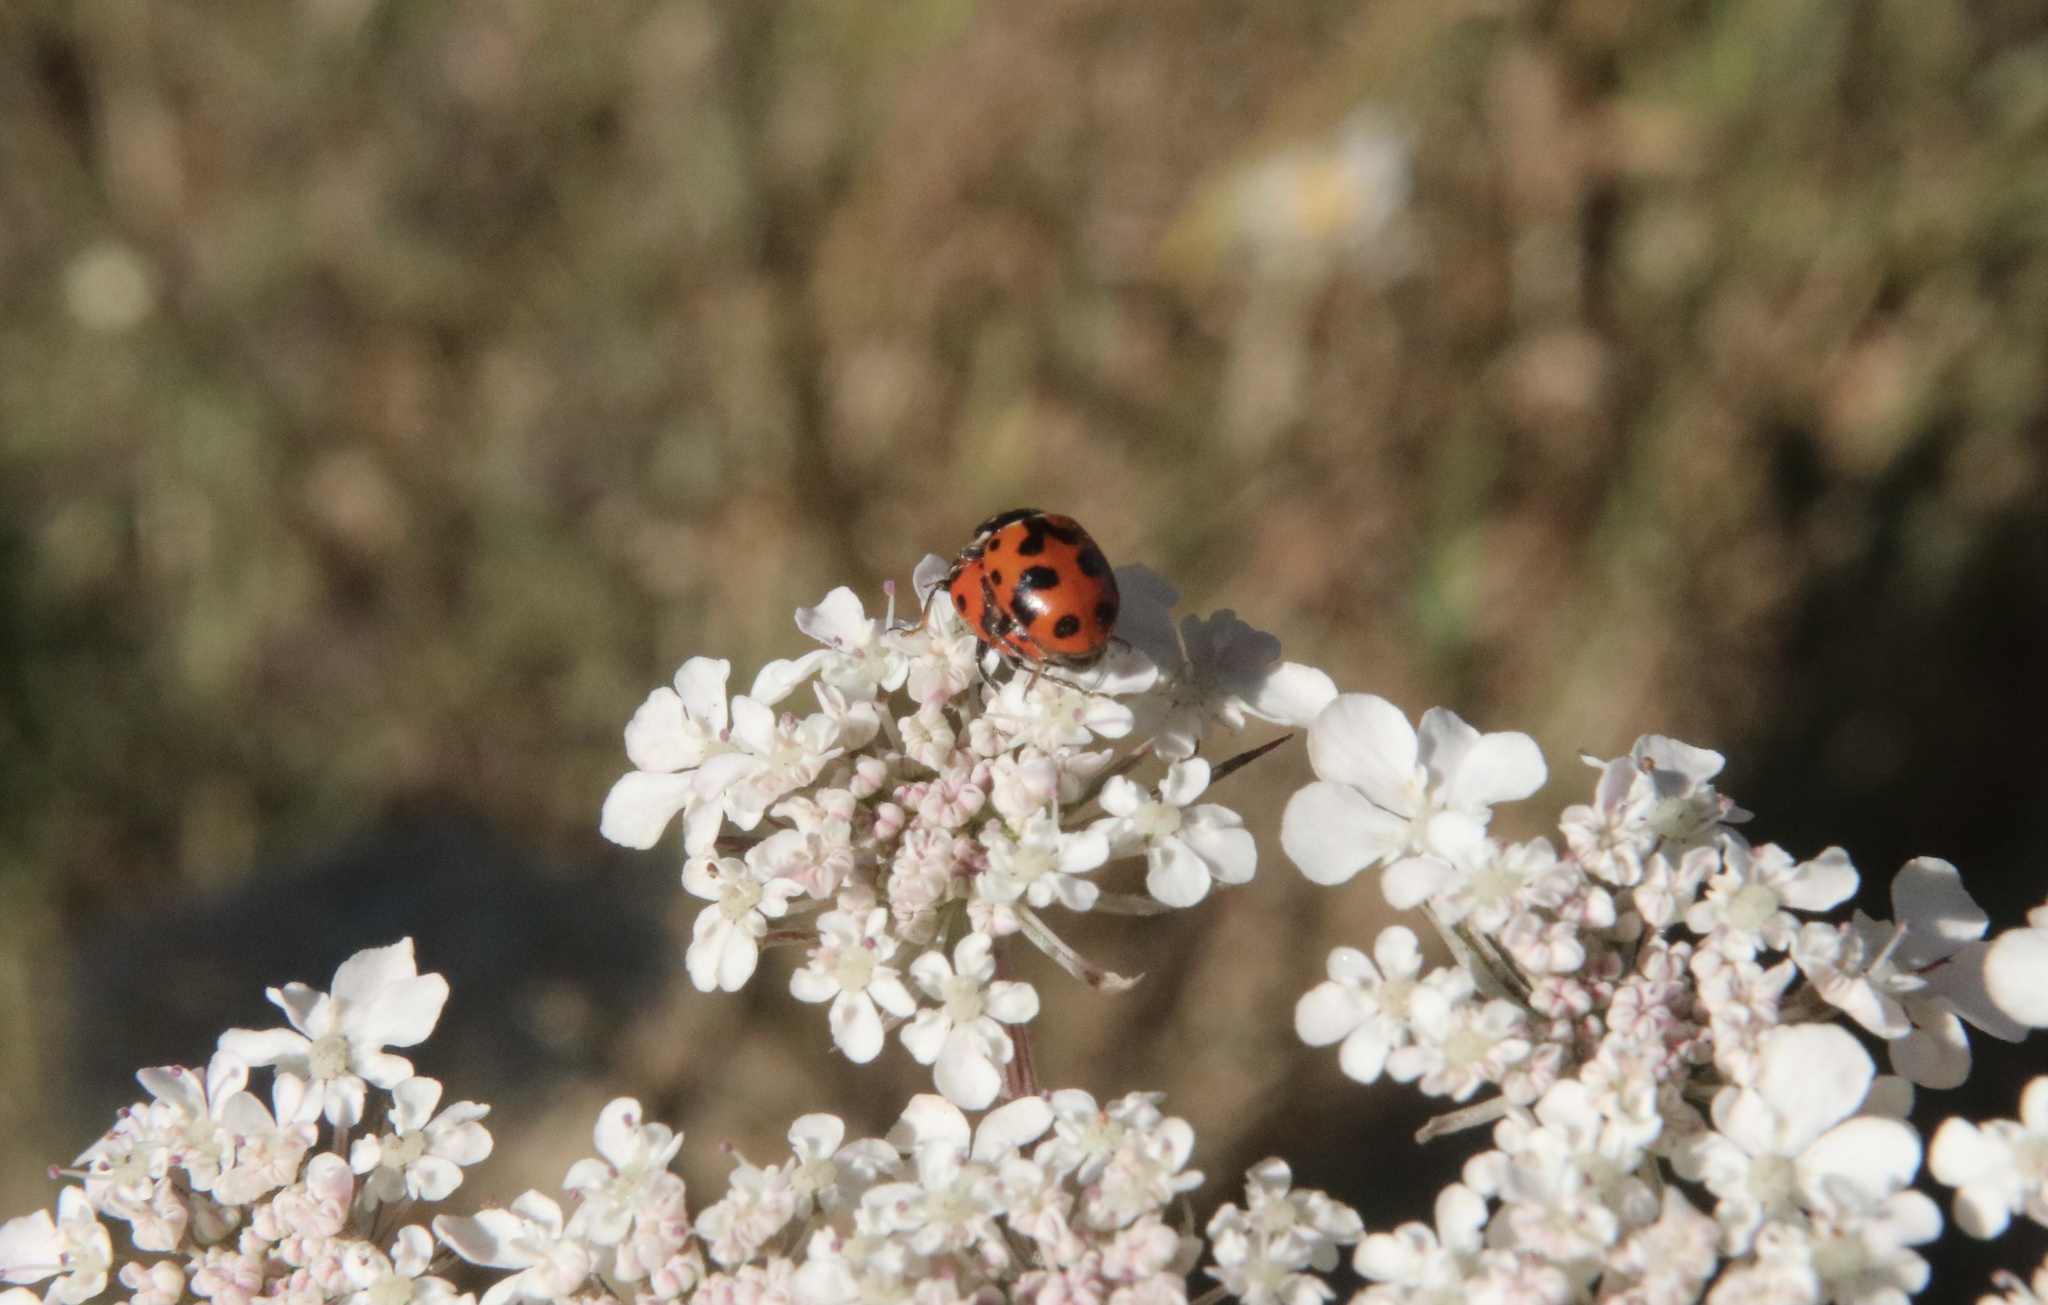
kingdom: Animalia
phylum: Arthropoda
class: Insecta
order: Coleoptera
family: Coccinellidae
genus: Hippodamia
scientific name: Hippodamia variegata
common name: Ladybird beetle
